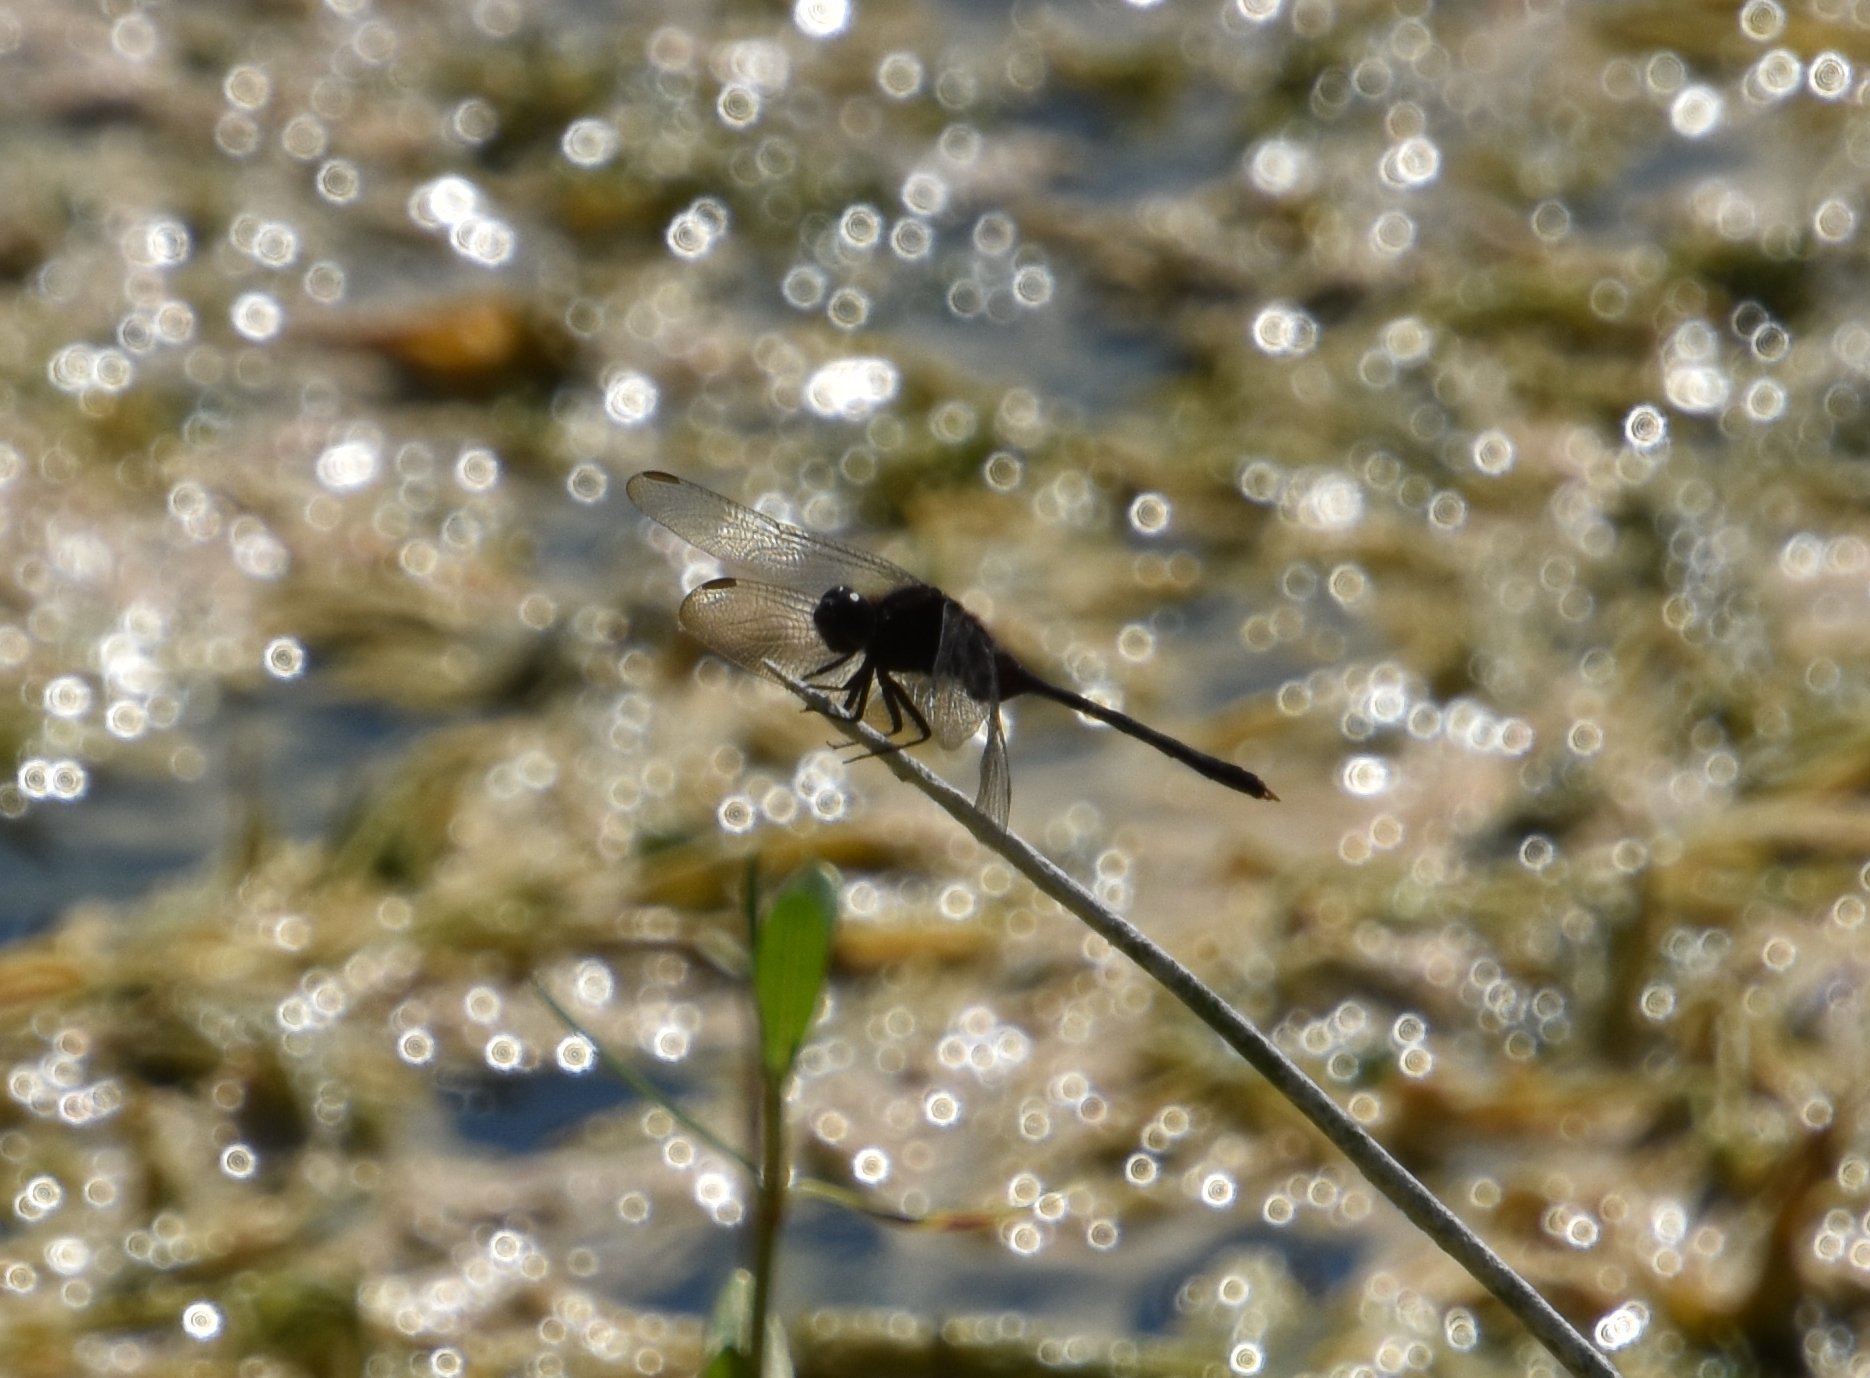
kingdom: Animalia
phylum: Arthropoda
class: Insecta
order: Odonata
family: Libellulidae
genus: Erythemis
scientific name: Erythemis plebeja
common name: Pin-tailed pondhawk
